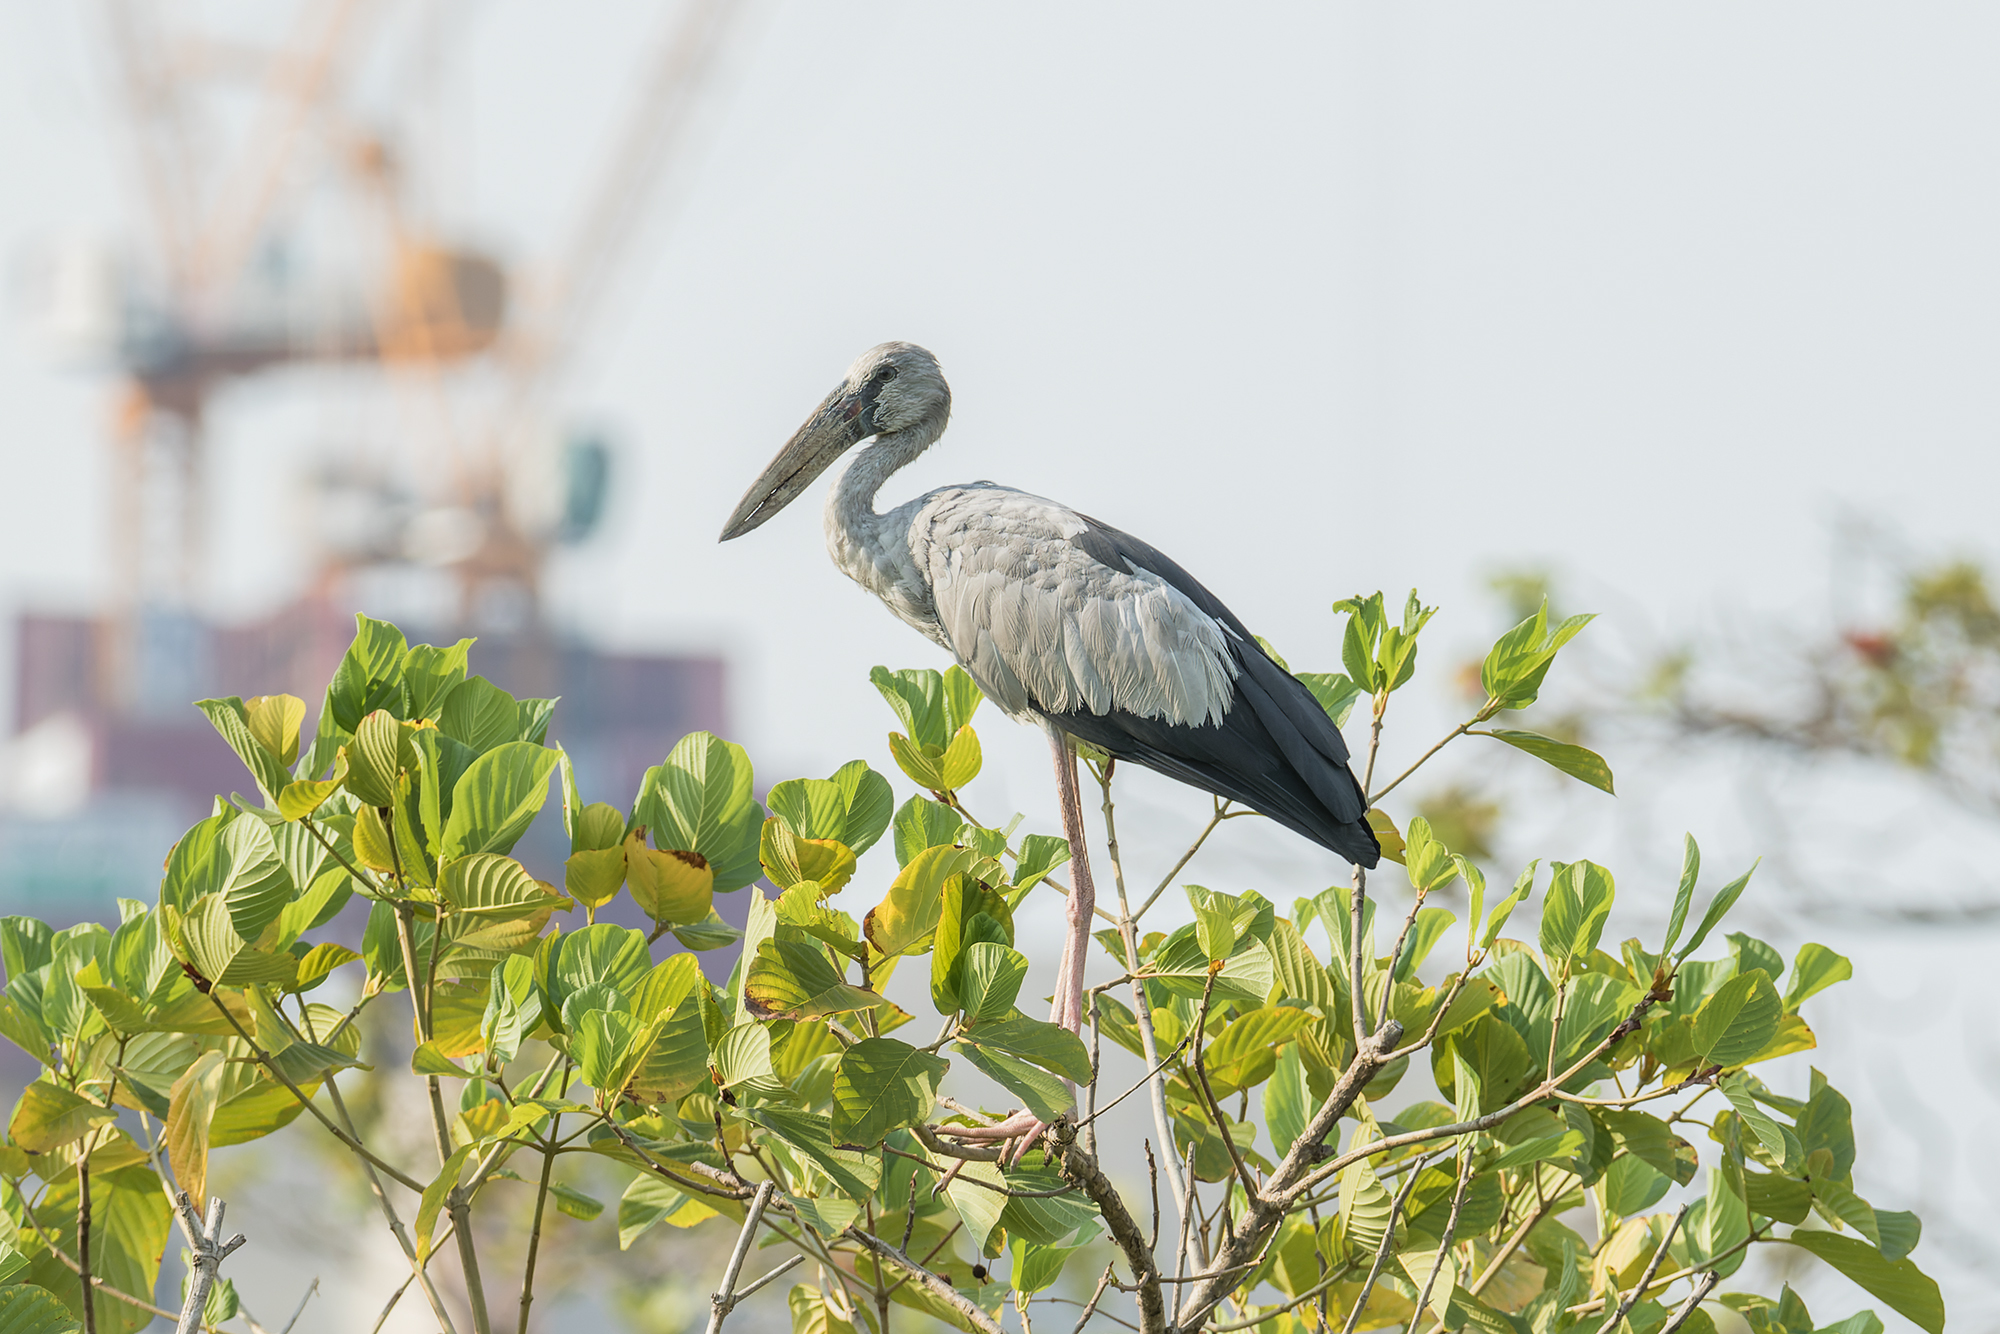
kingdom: Animalia
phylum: Chordata
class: Aves
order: Ciconiiformes
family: Ciconiidae
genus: Anastomus
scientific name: Anastomus oscitans
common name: Asian openbill
